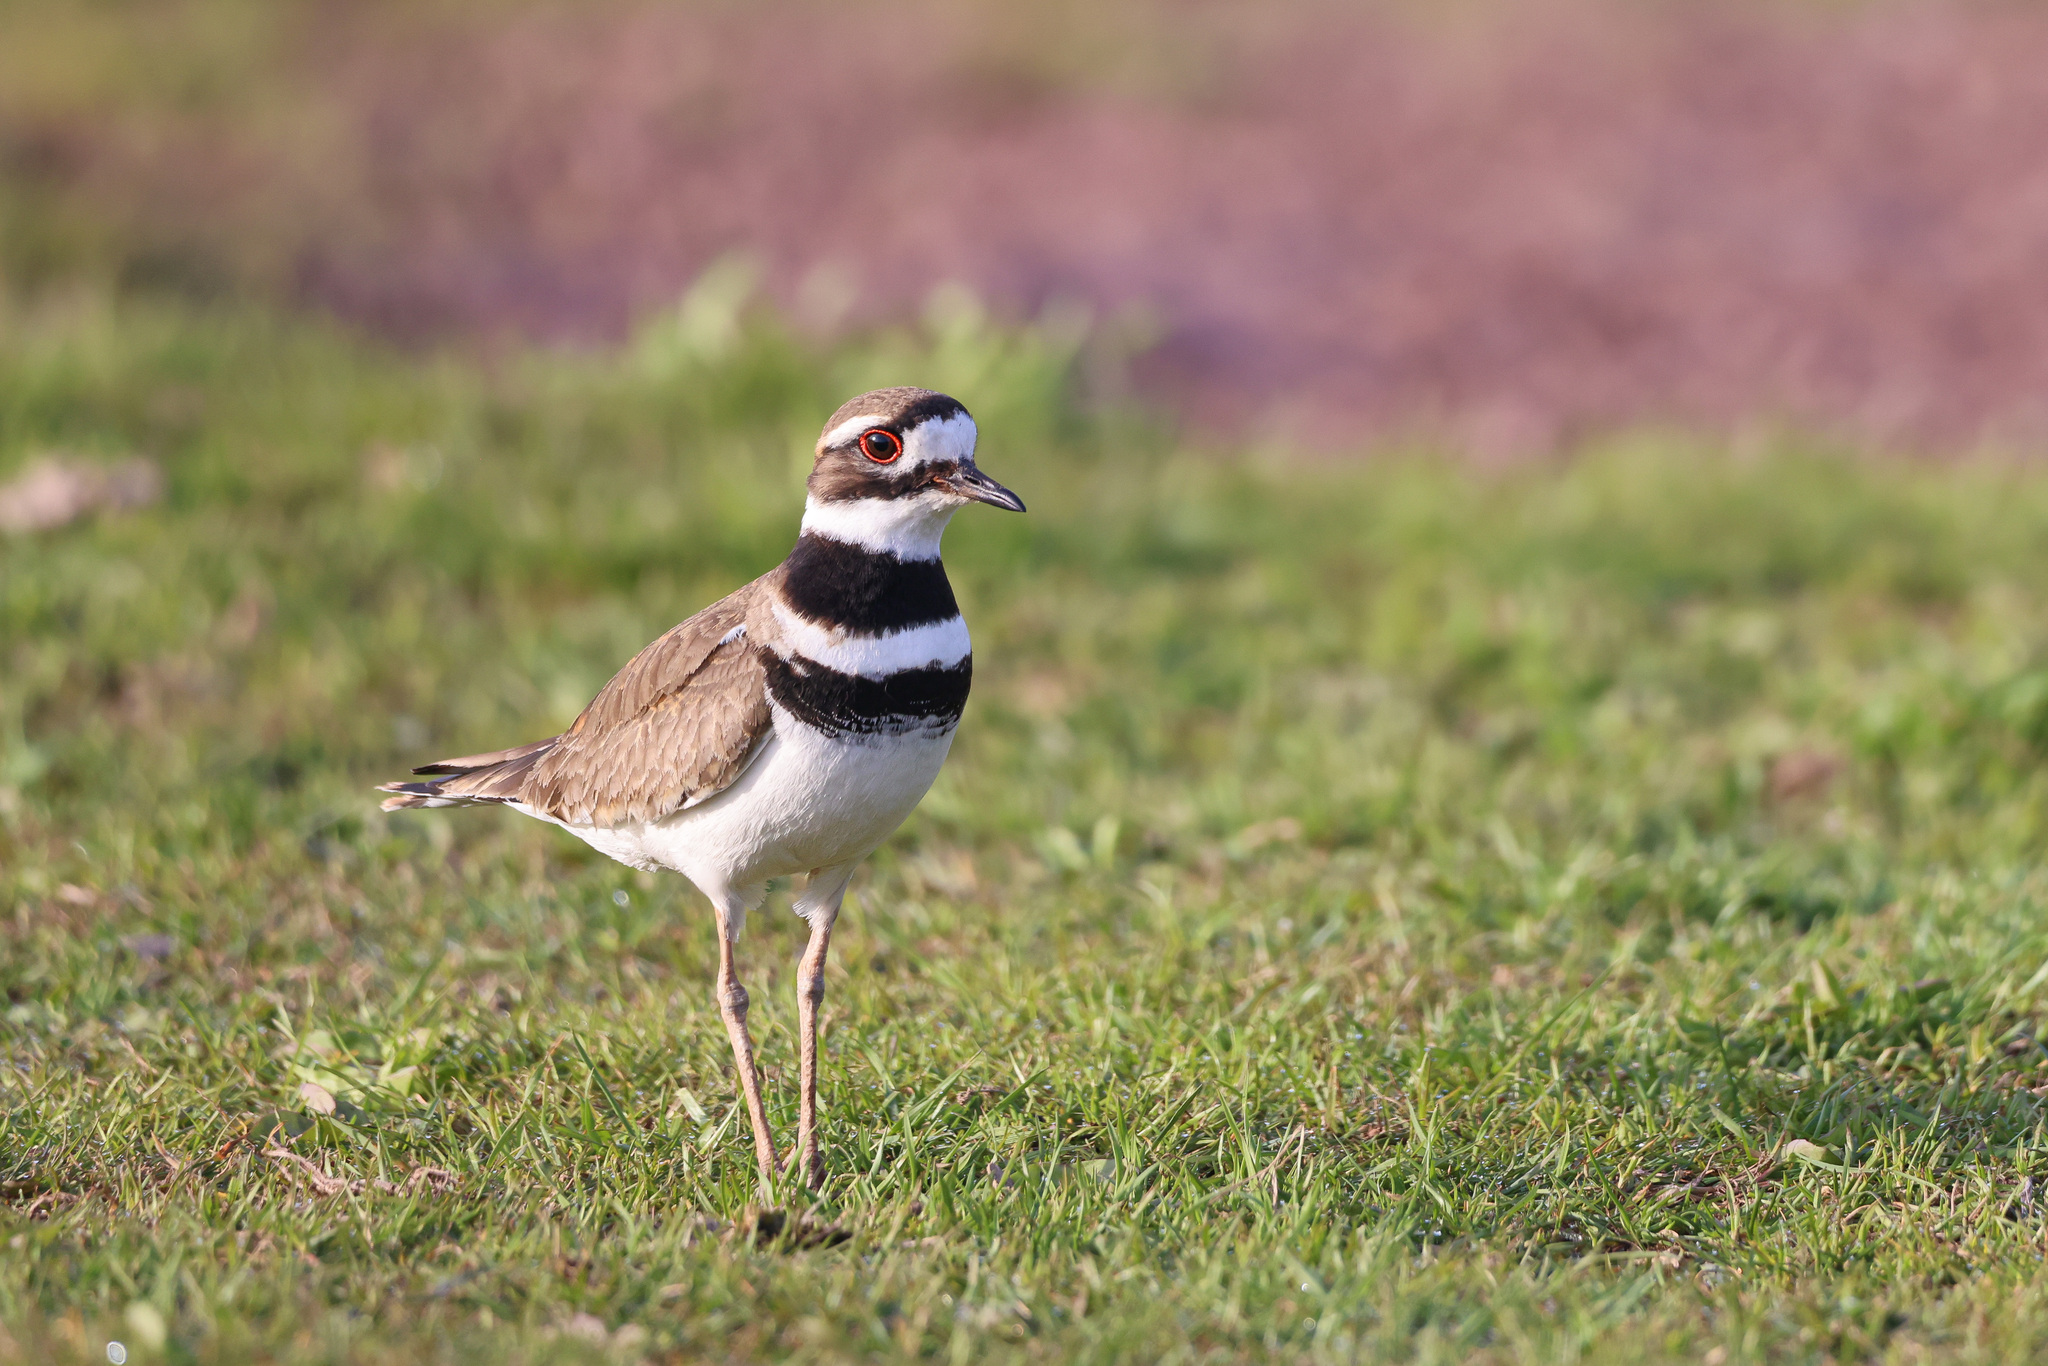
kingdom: Animalia
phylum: Chordata
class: Aves
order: Charadriiformes
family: Charadriidae
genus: Charadrius
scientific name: Charadrius vociferus
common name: Killdeer
